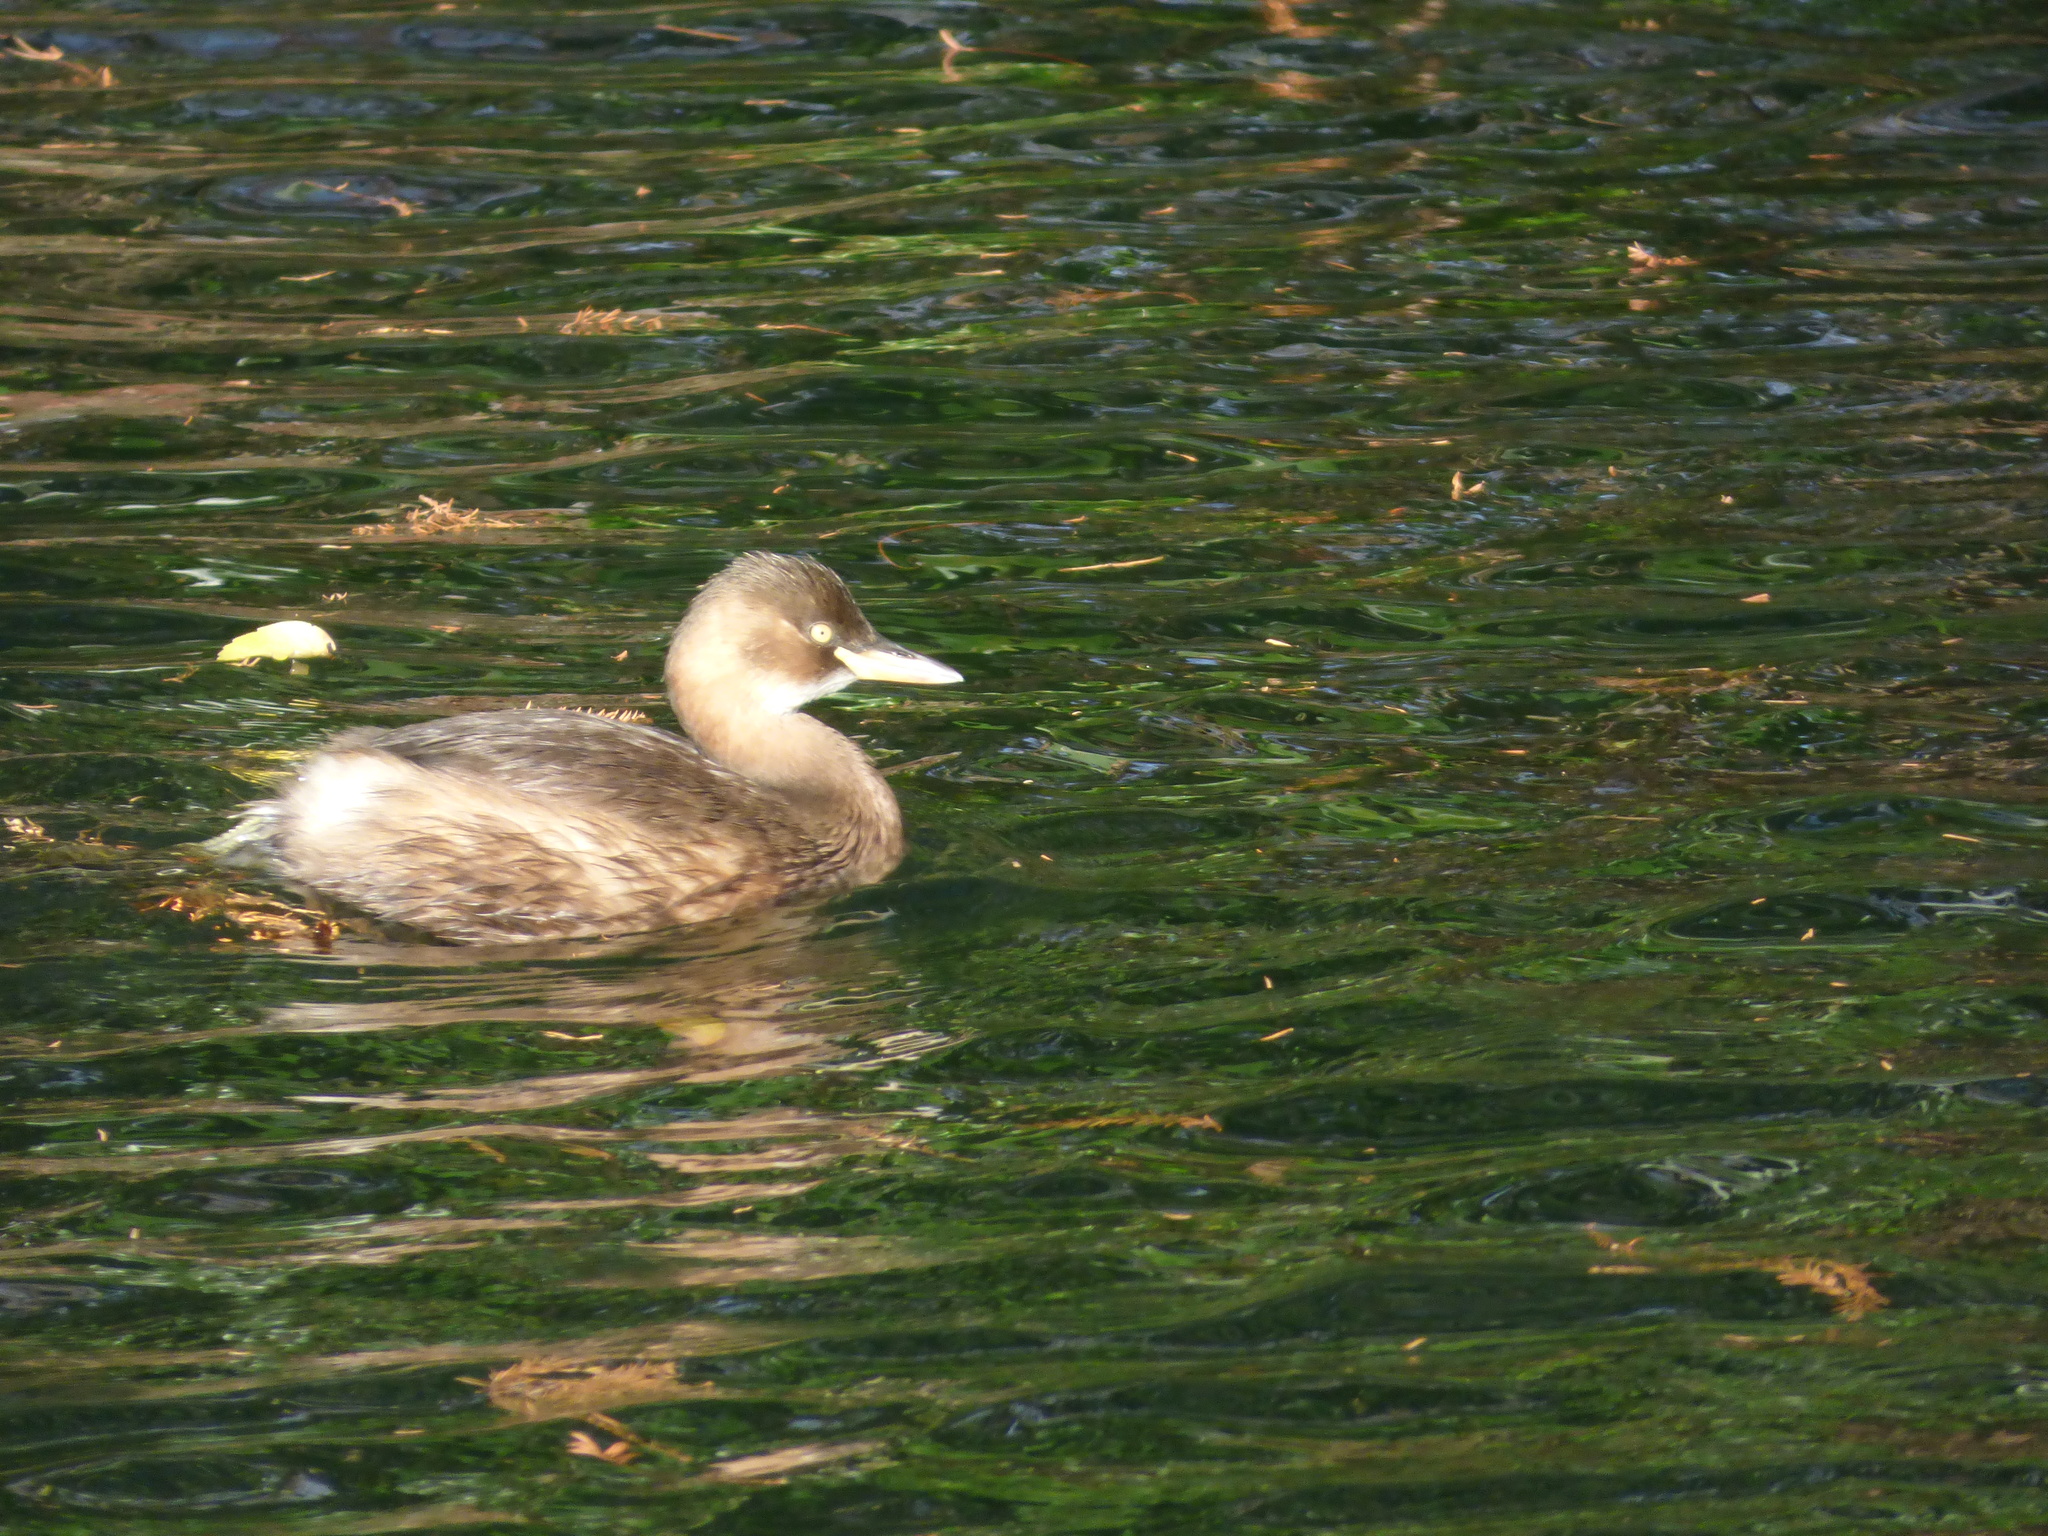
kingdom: Animalia
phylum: Chordata
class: Aves
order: Podicipediformes
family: Podicipedidae
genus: Tachybaptus
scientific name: Tachybaptus ruficollis
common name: Little grebe
